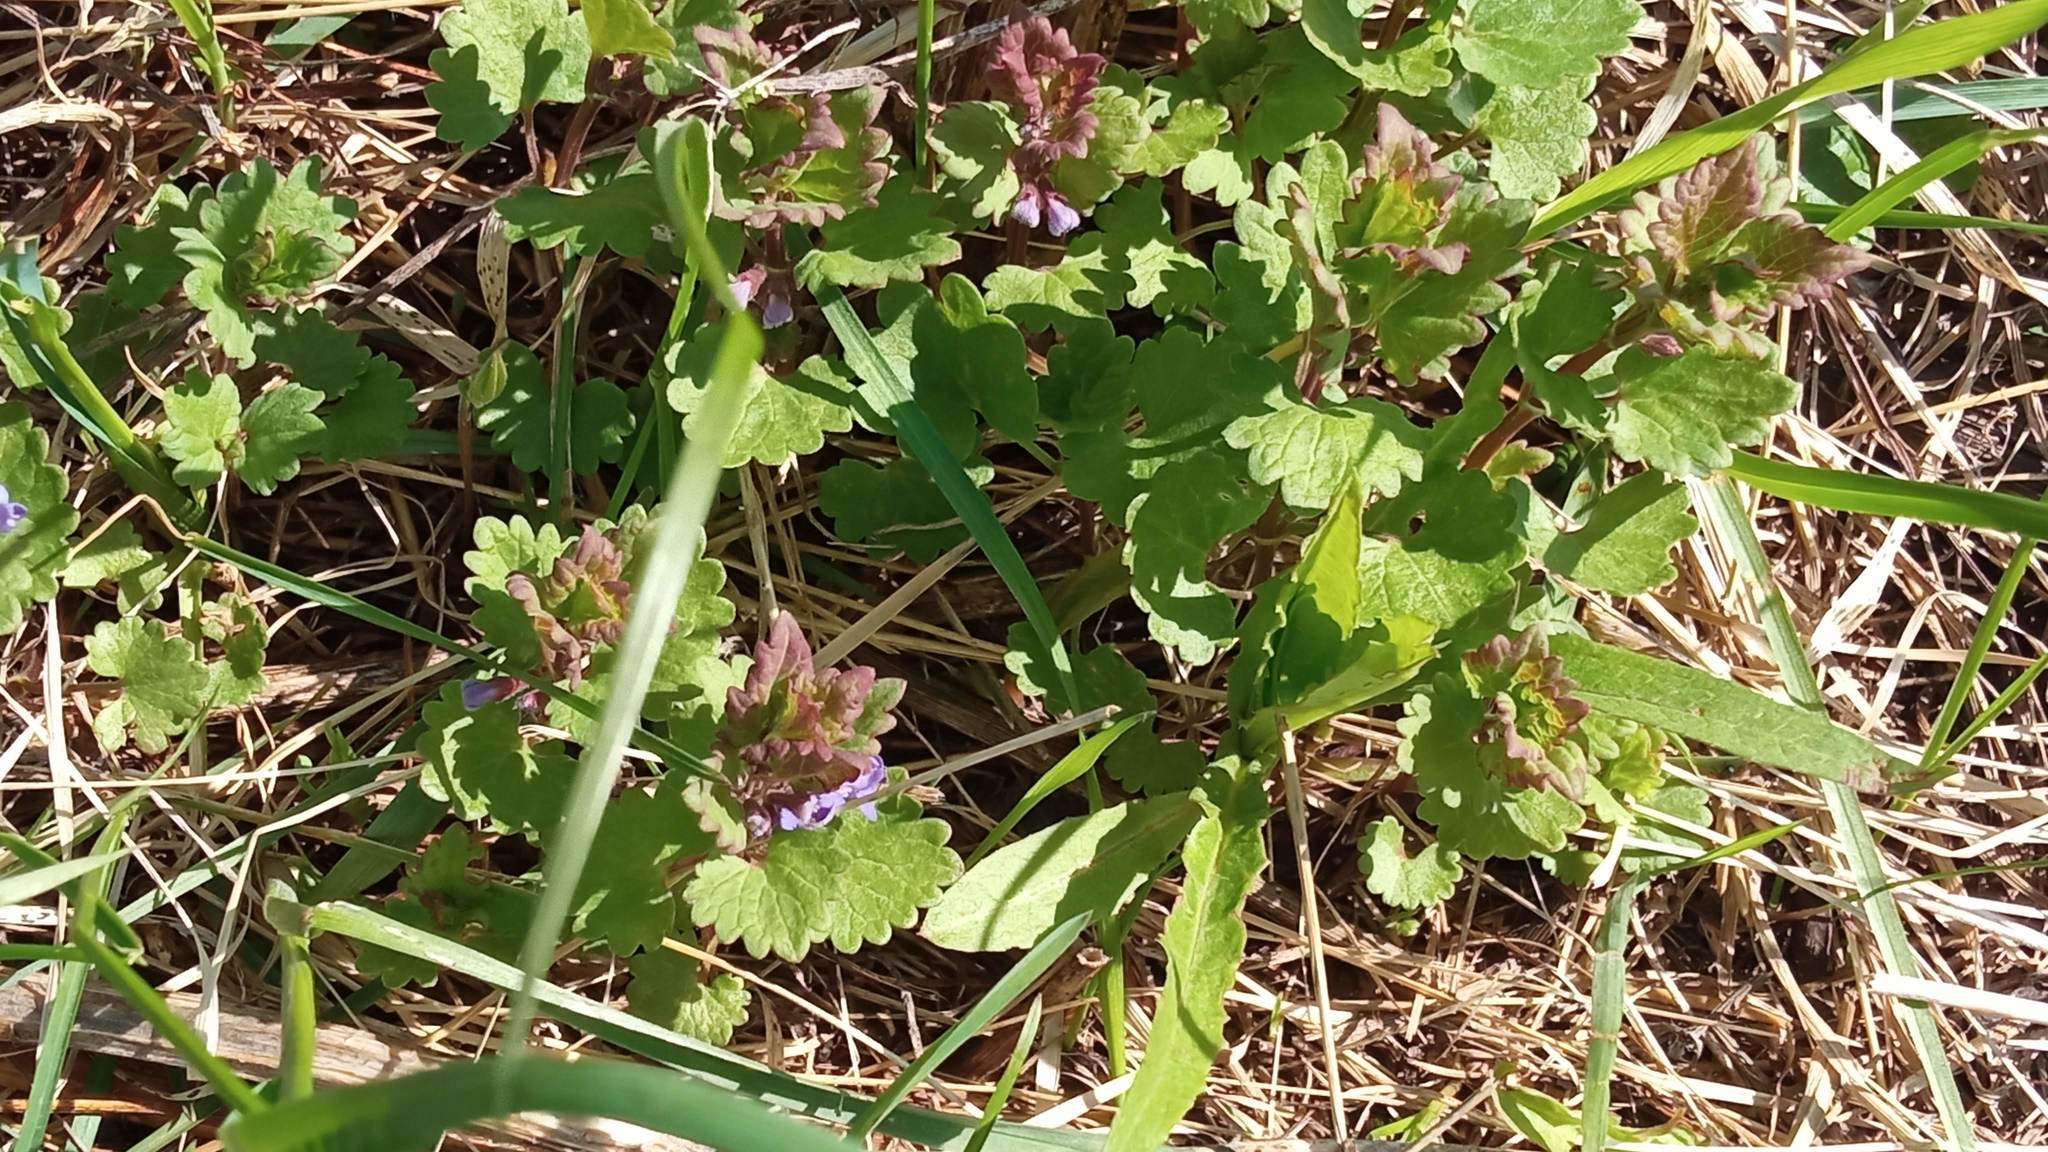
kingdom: Plantae
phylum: Tracheophyta
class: Magnoliopsida
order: Lamiales
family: Lamiaceae
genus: Glechoma
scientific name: Glechoma hederacea
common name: Ground ivy
